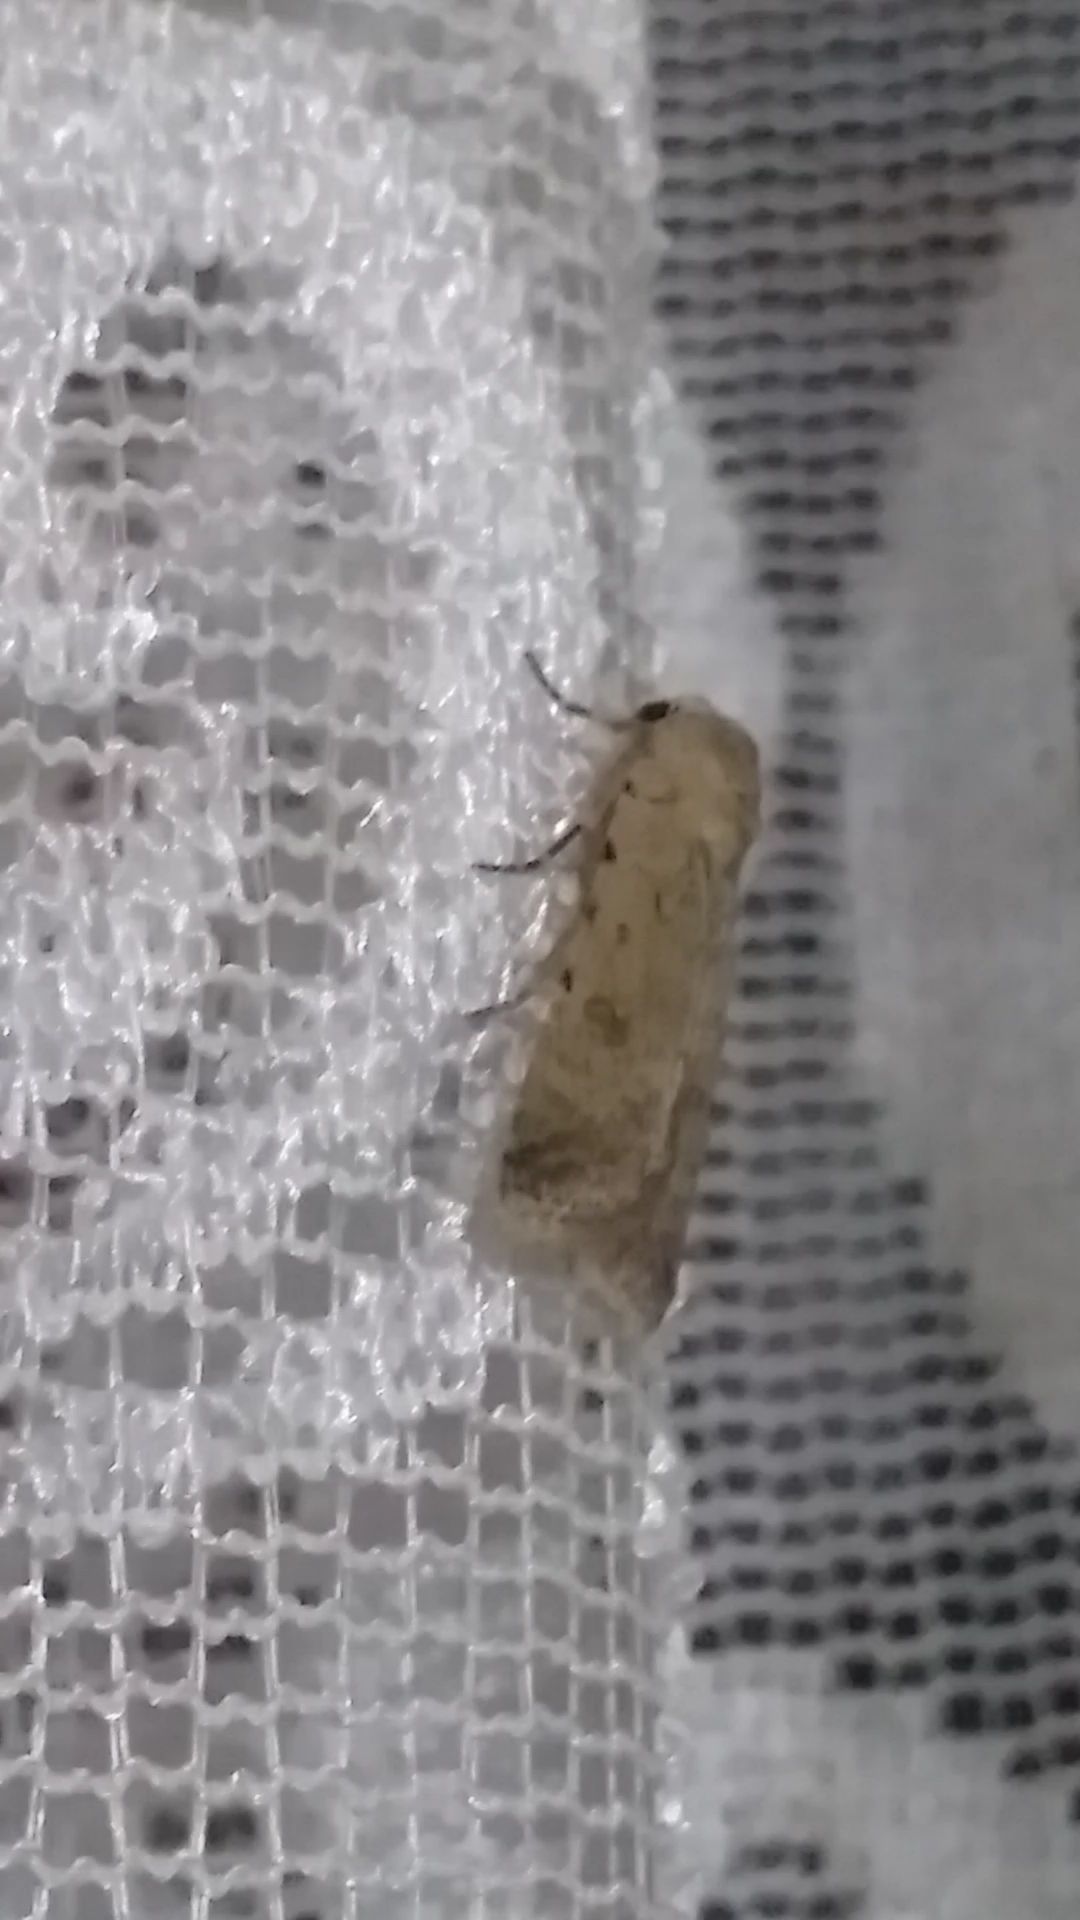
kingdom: Animalia
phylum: Arthropoda
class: Insecta
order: Lepidoptera
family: Noctuidae
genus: Caradrina
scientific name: Caradrina clavipalpis
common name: Pale mottled willow
